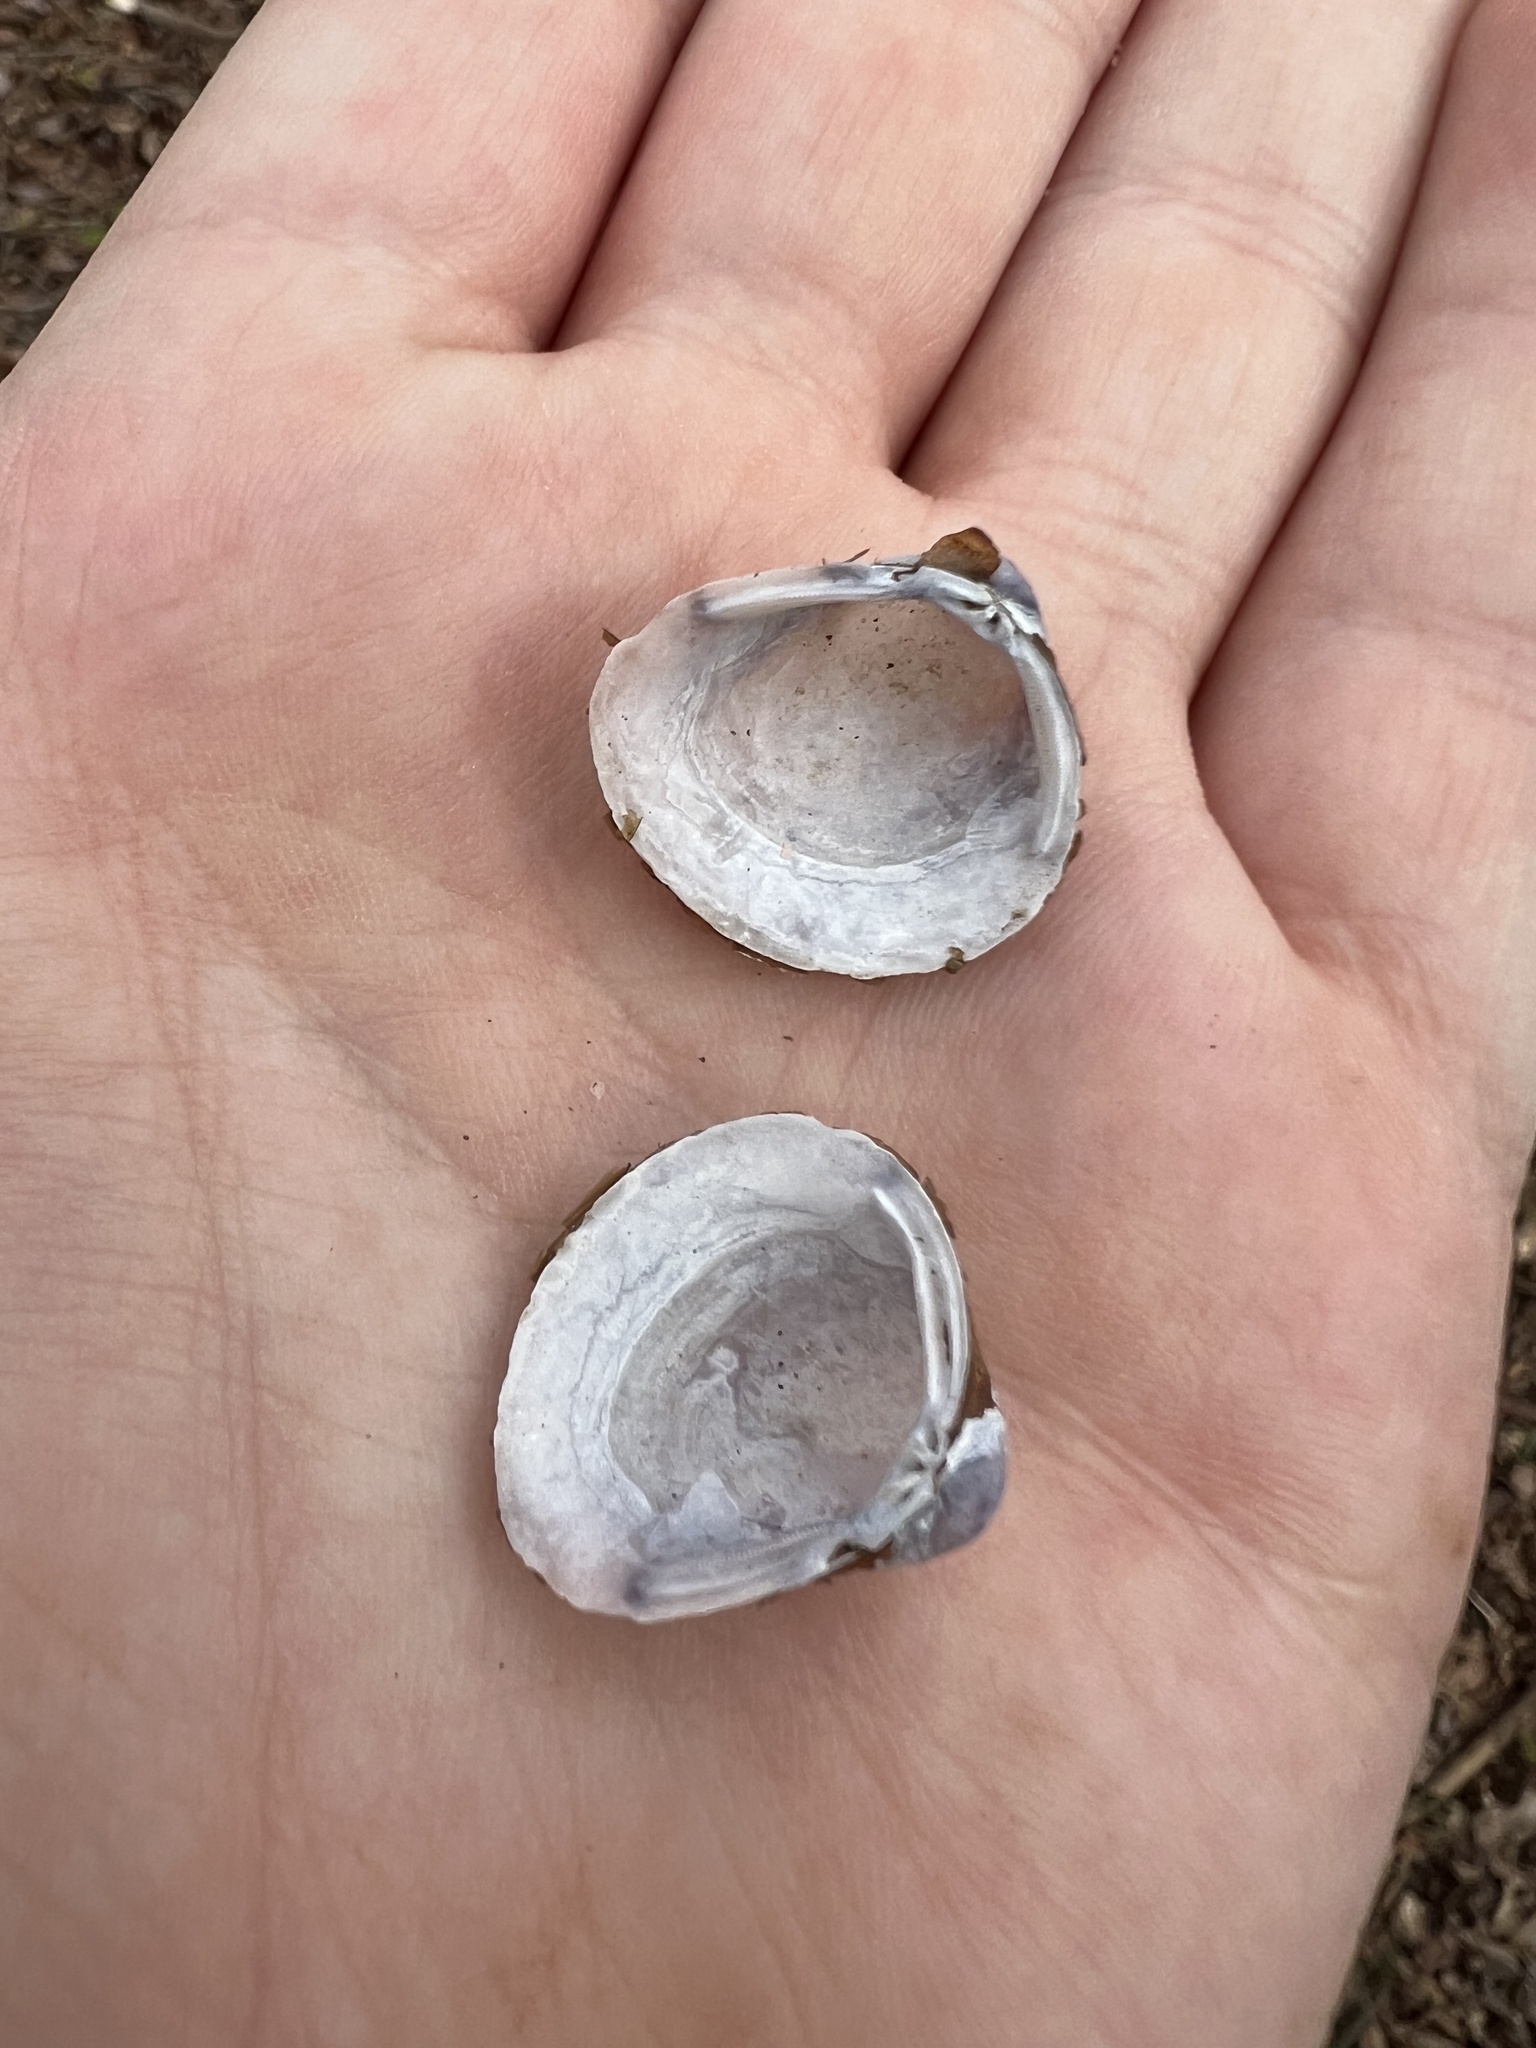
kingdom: Animalia
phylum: Mollusca
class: Bivalvia
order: Venerida
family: Cyrenidae
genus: Corbicula
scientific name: Corbicula fluminea
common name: Asian clam
